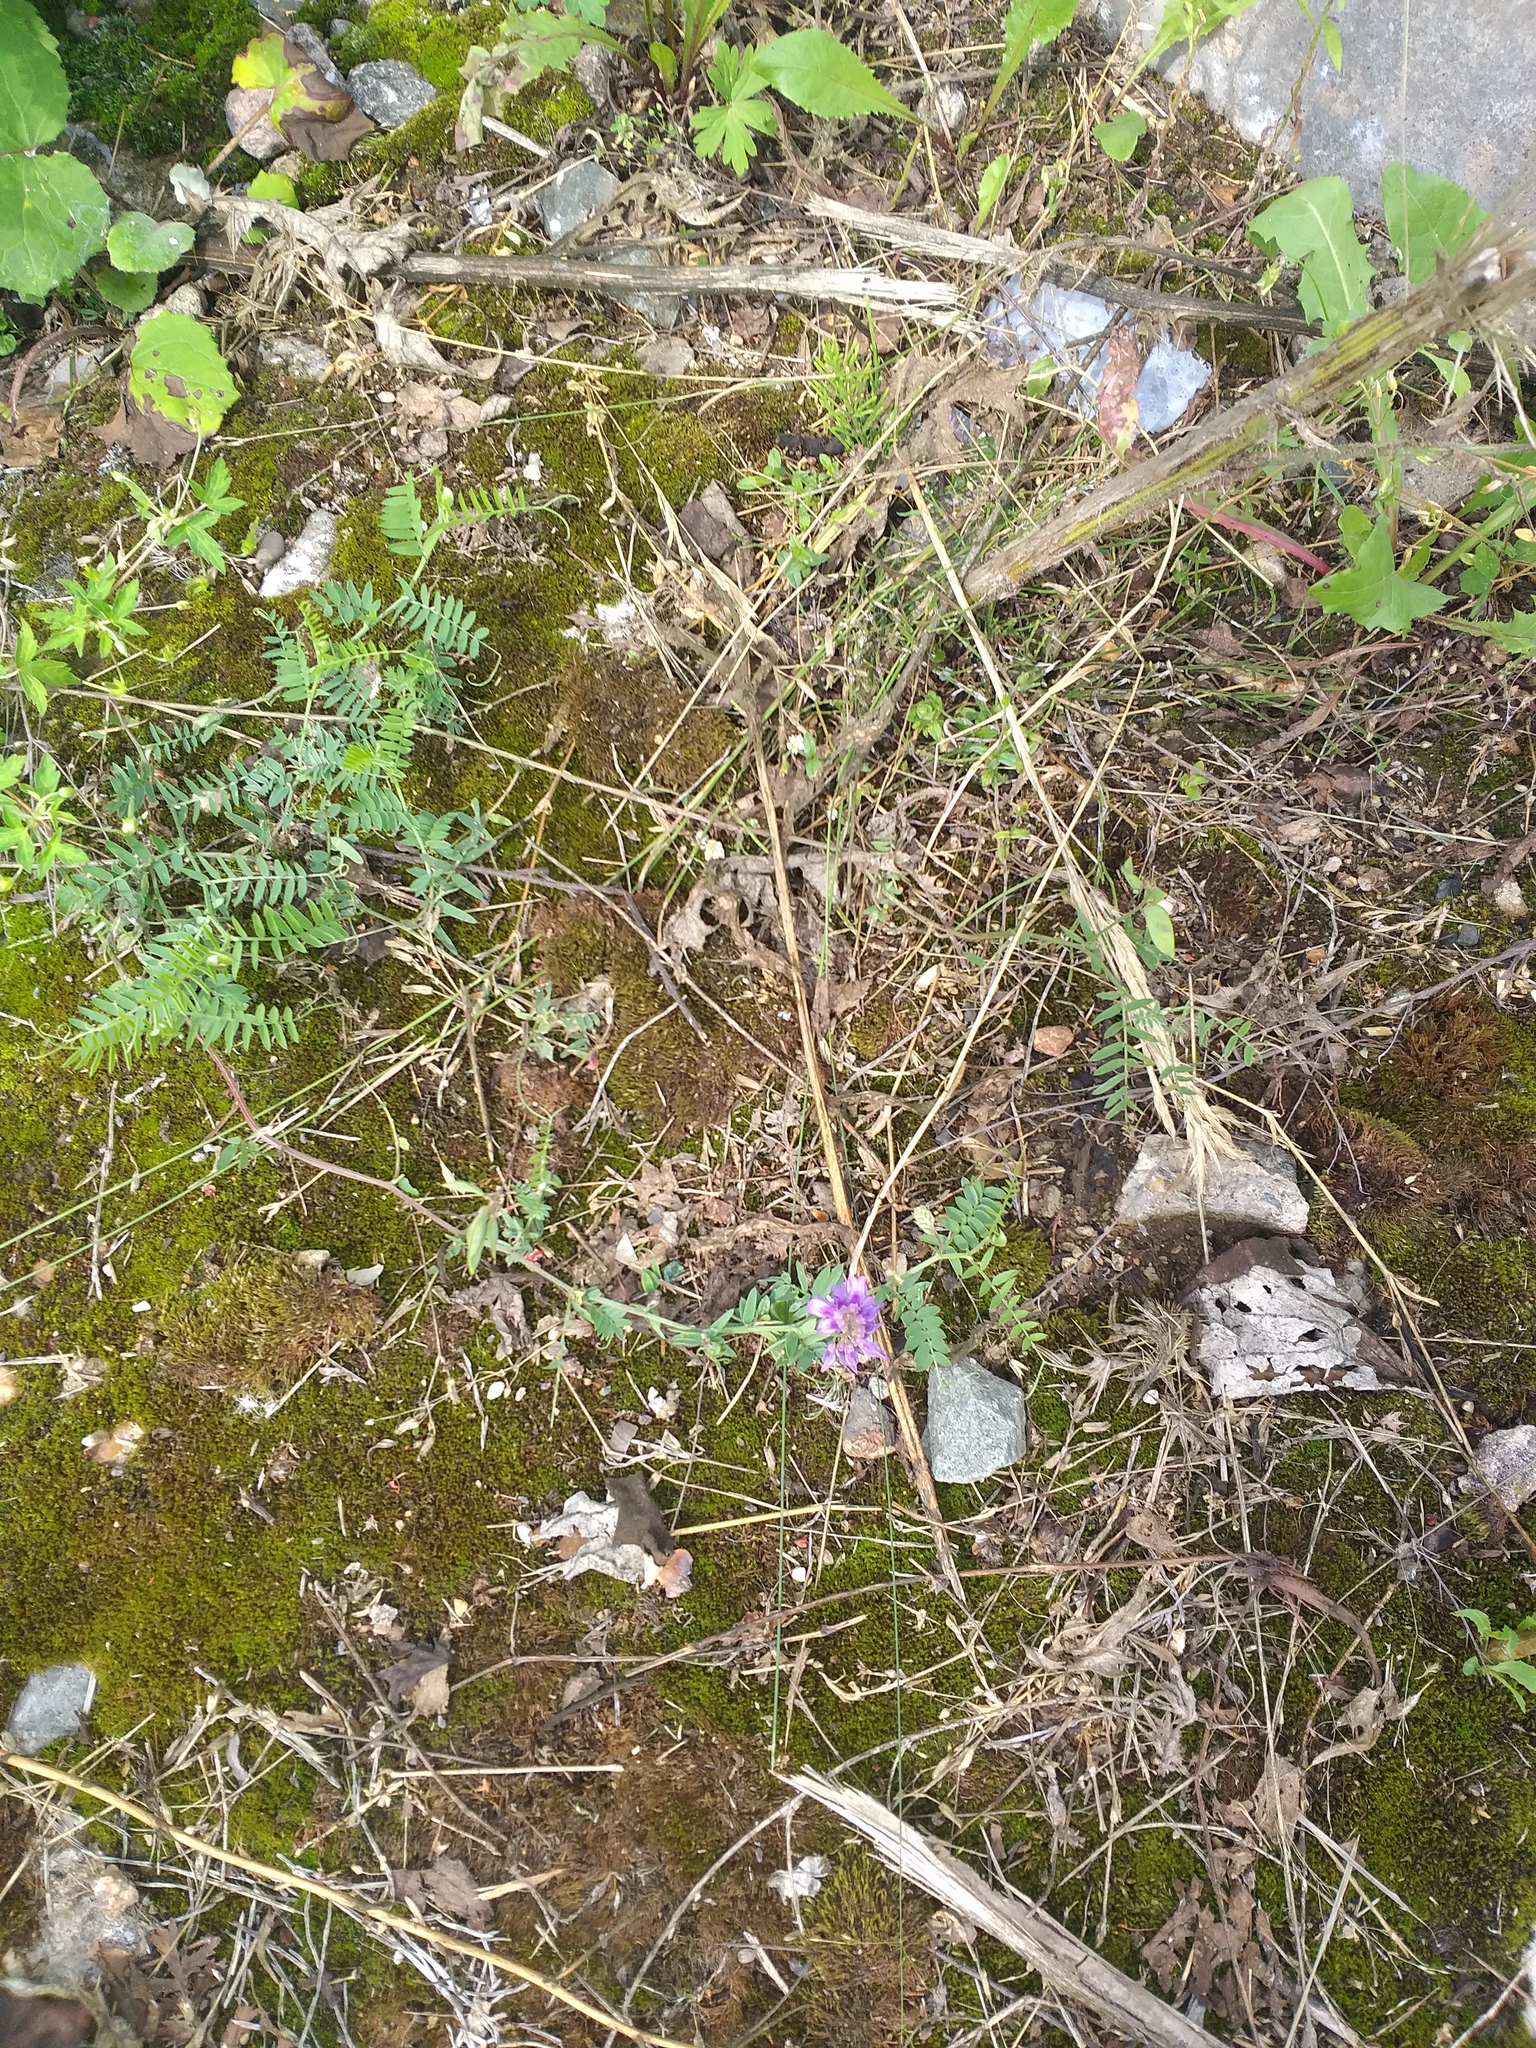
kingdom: Plantae
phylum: Tracheophyta
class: Magnoliopsida
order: Fabales
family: Fabaceae
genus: Vicia
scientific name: Vicia cracca
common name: Bird vetch
